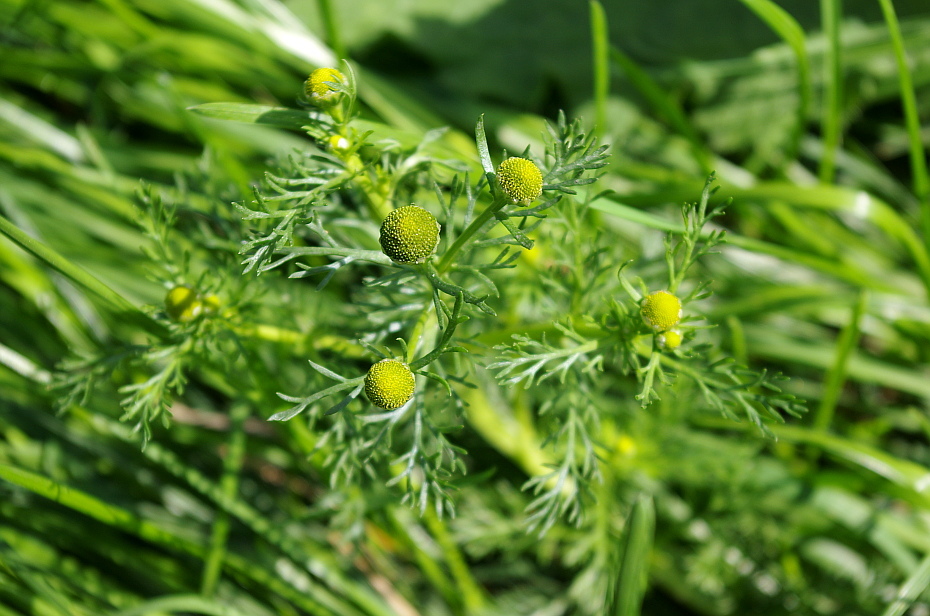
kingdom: Plantae
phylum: Tracheophyta
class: Magnoliopsida
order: Asterales
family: Asteraceae
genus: Matricaria
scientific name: Matricaria discoidea
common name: Disc mayweed
